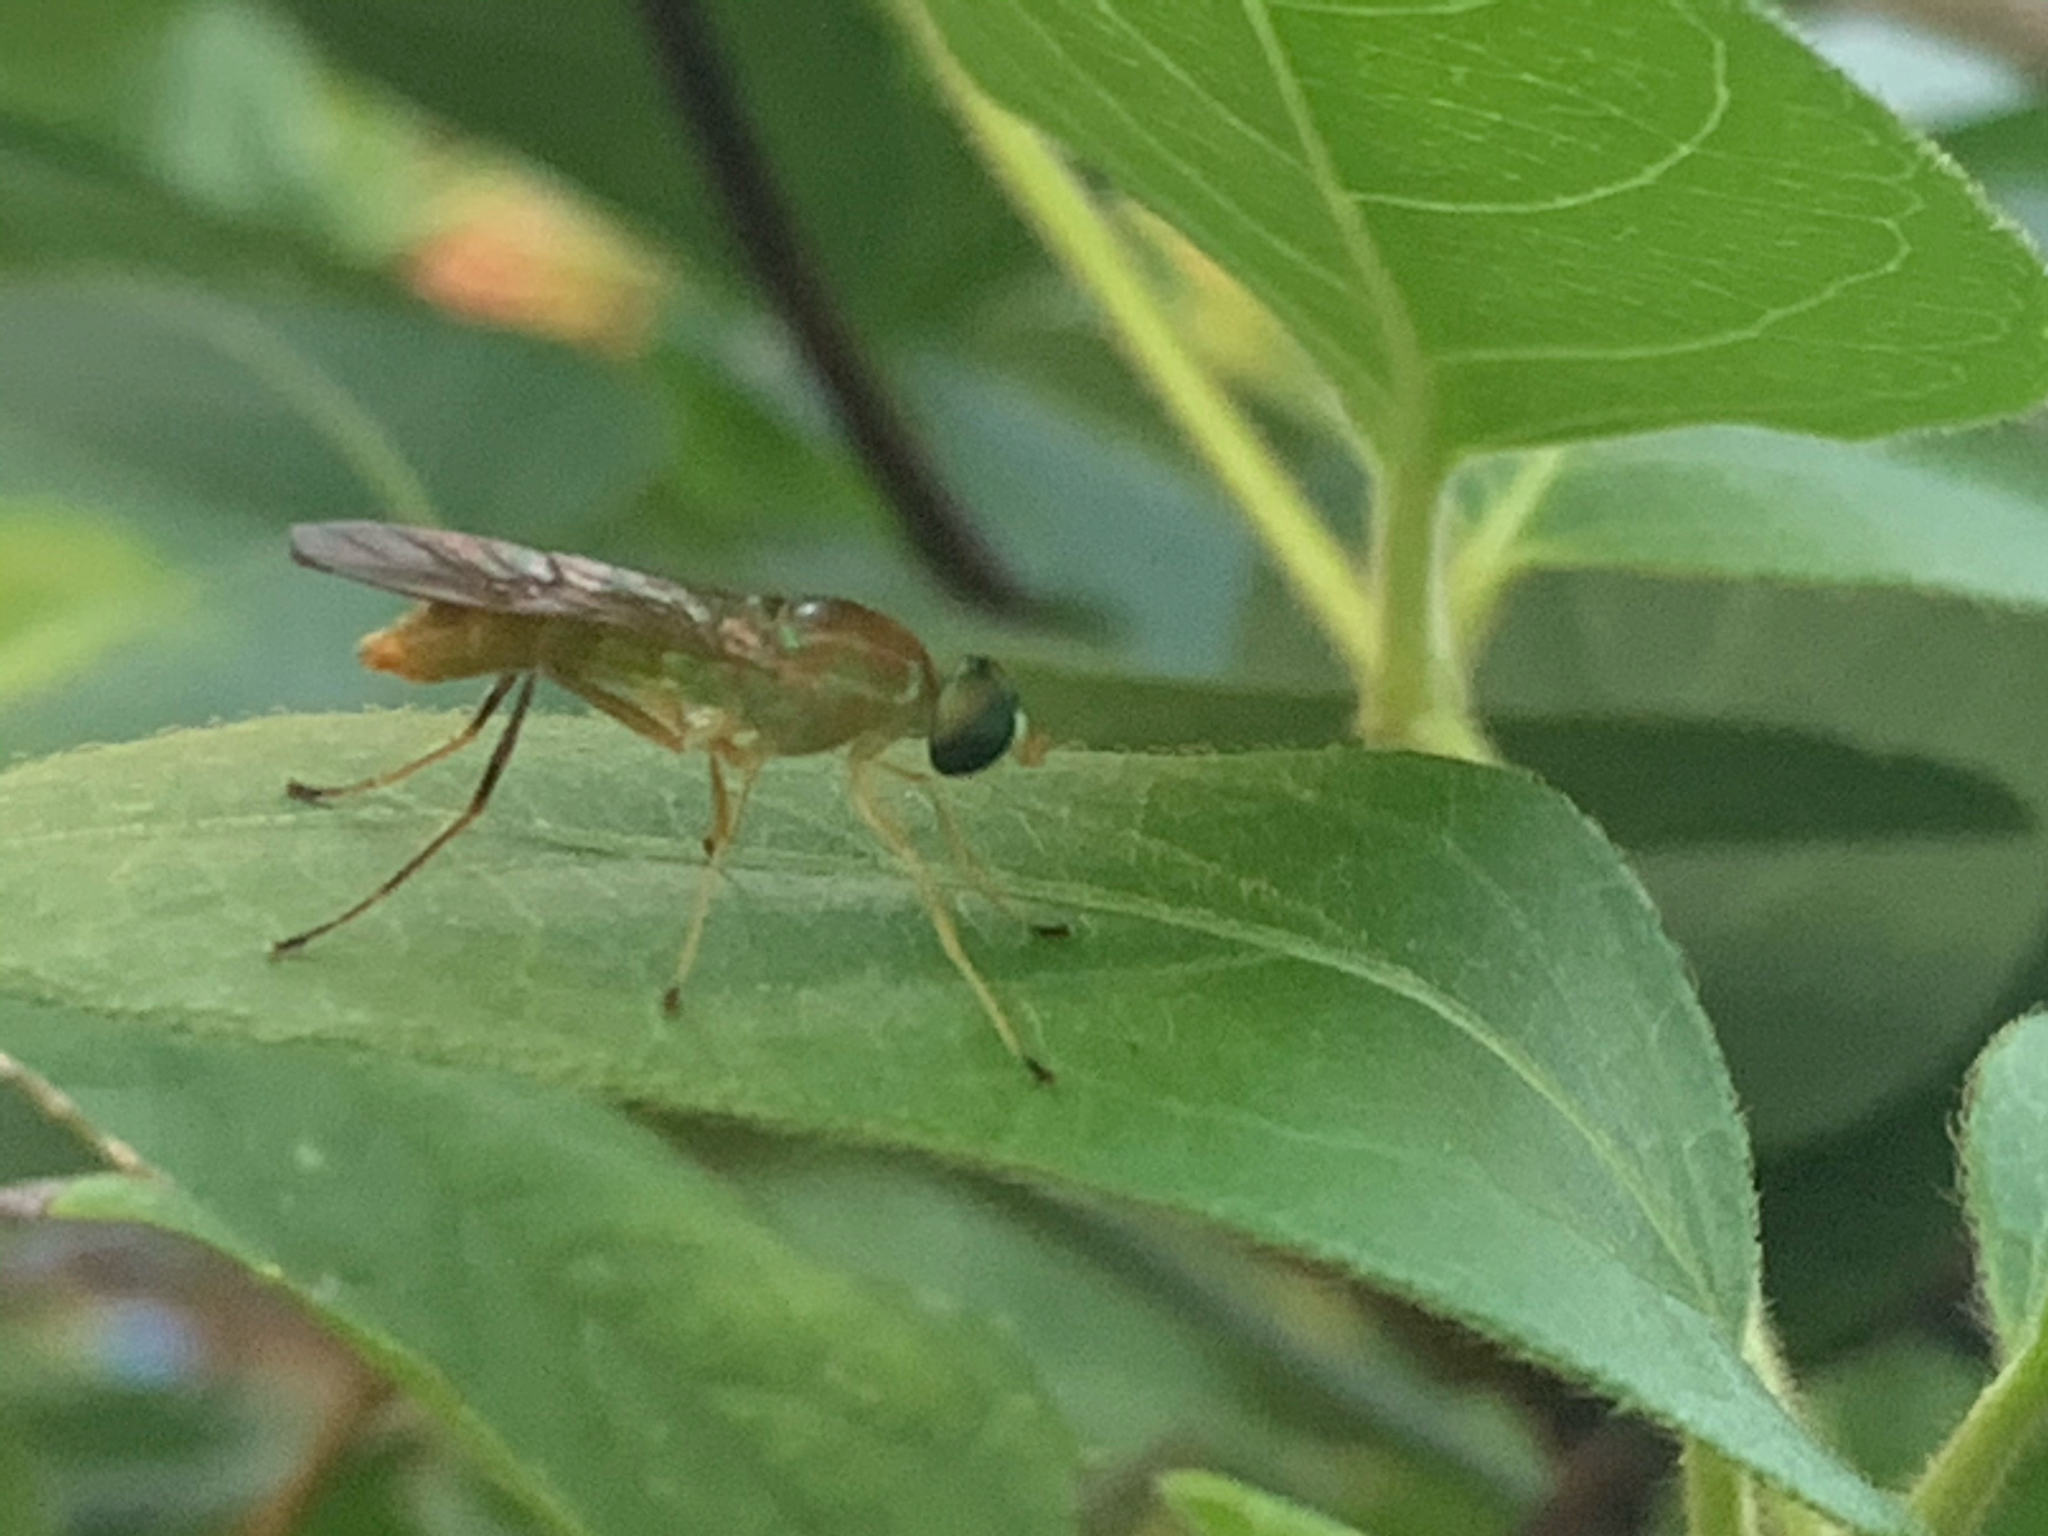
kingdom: Animalia
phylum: Arthropoda
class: Insecta
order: Diptera
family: Stratiomyidae
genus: Ptecticus
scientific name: Ptecticus trivittatus
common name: Compost fly
